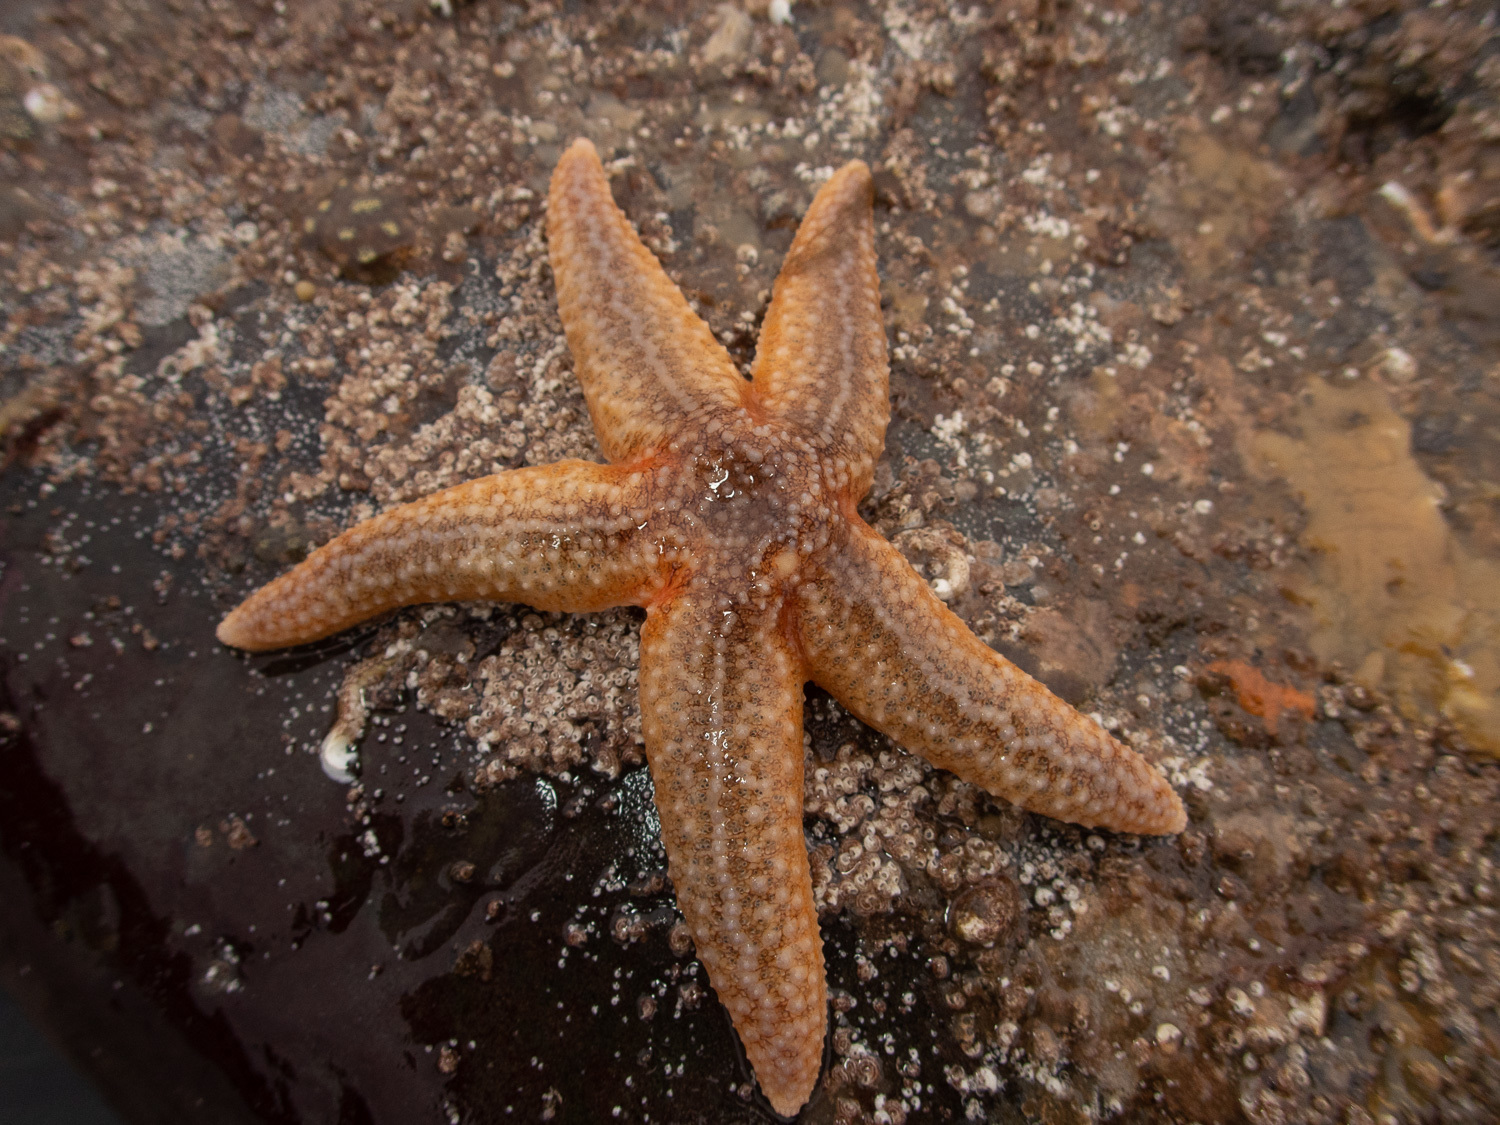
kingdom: Animalia
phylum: Echinodermata
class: Asteroidea
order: Forcipulatida
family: Asteriidae
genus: Asterias
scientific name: Asterias rubens
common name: Common starfish
